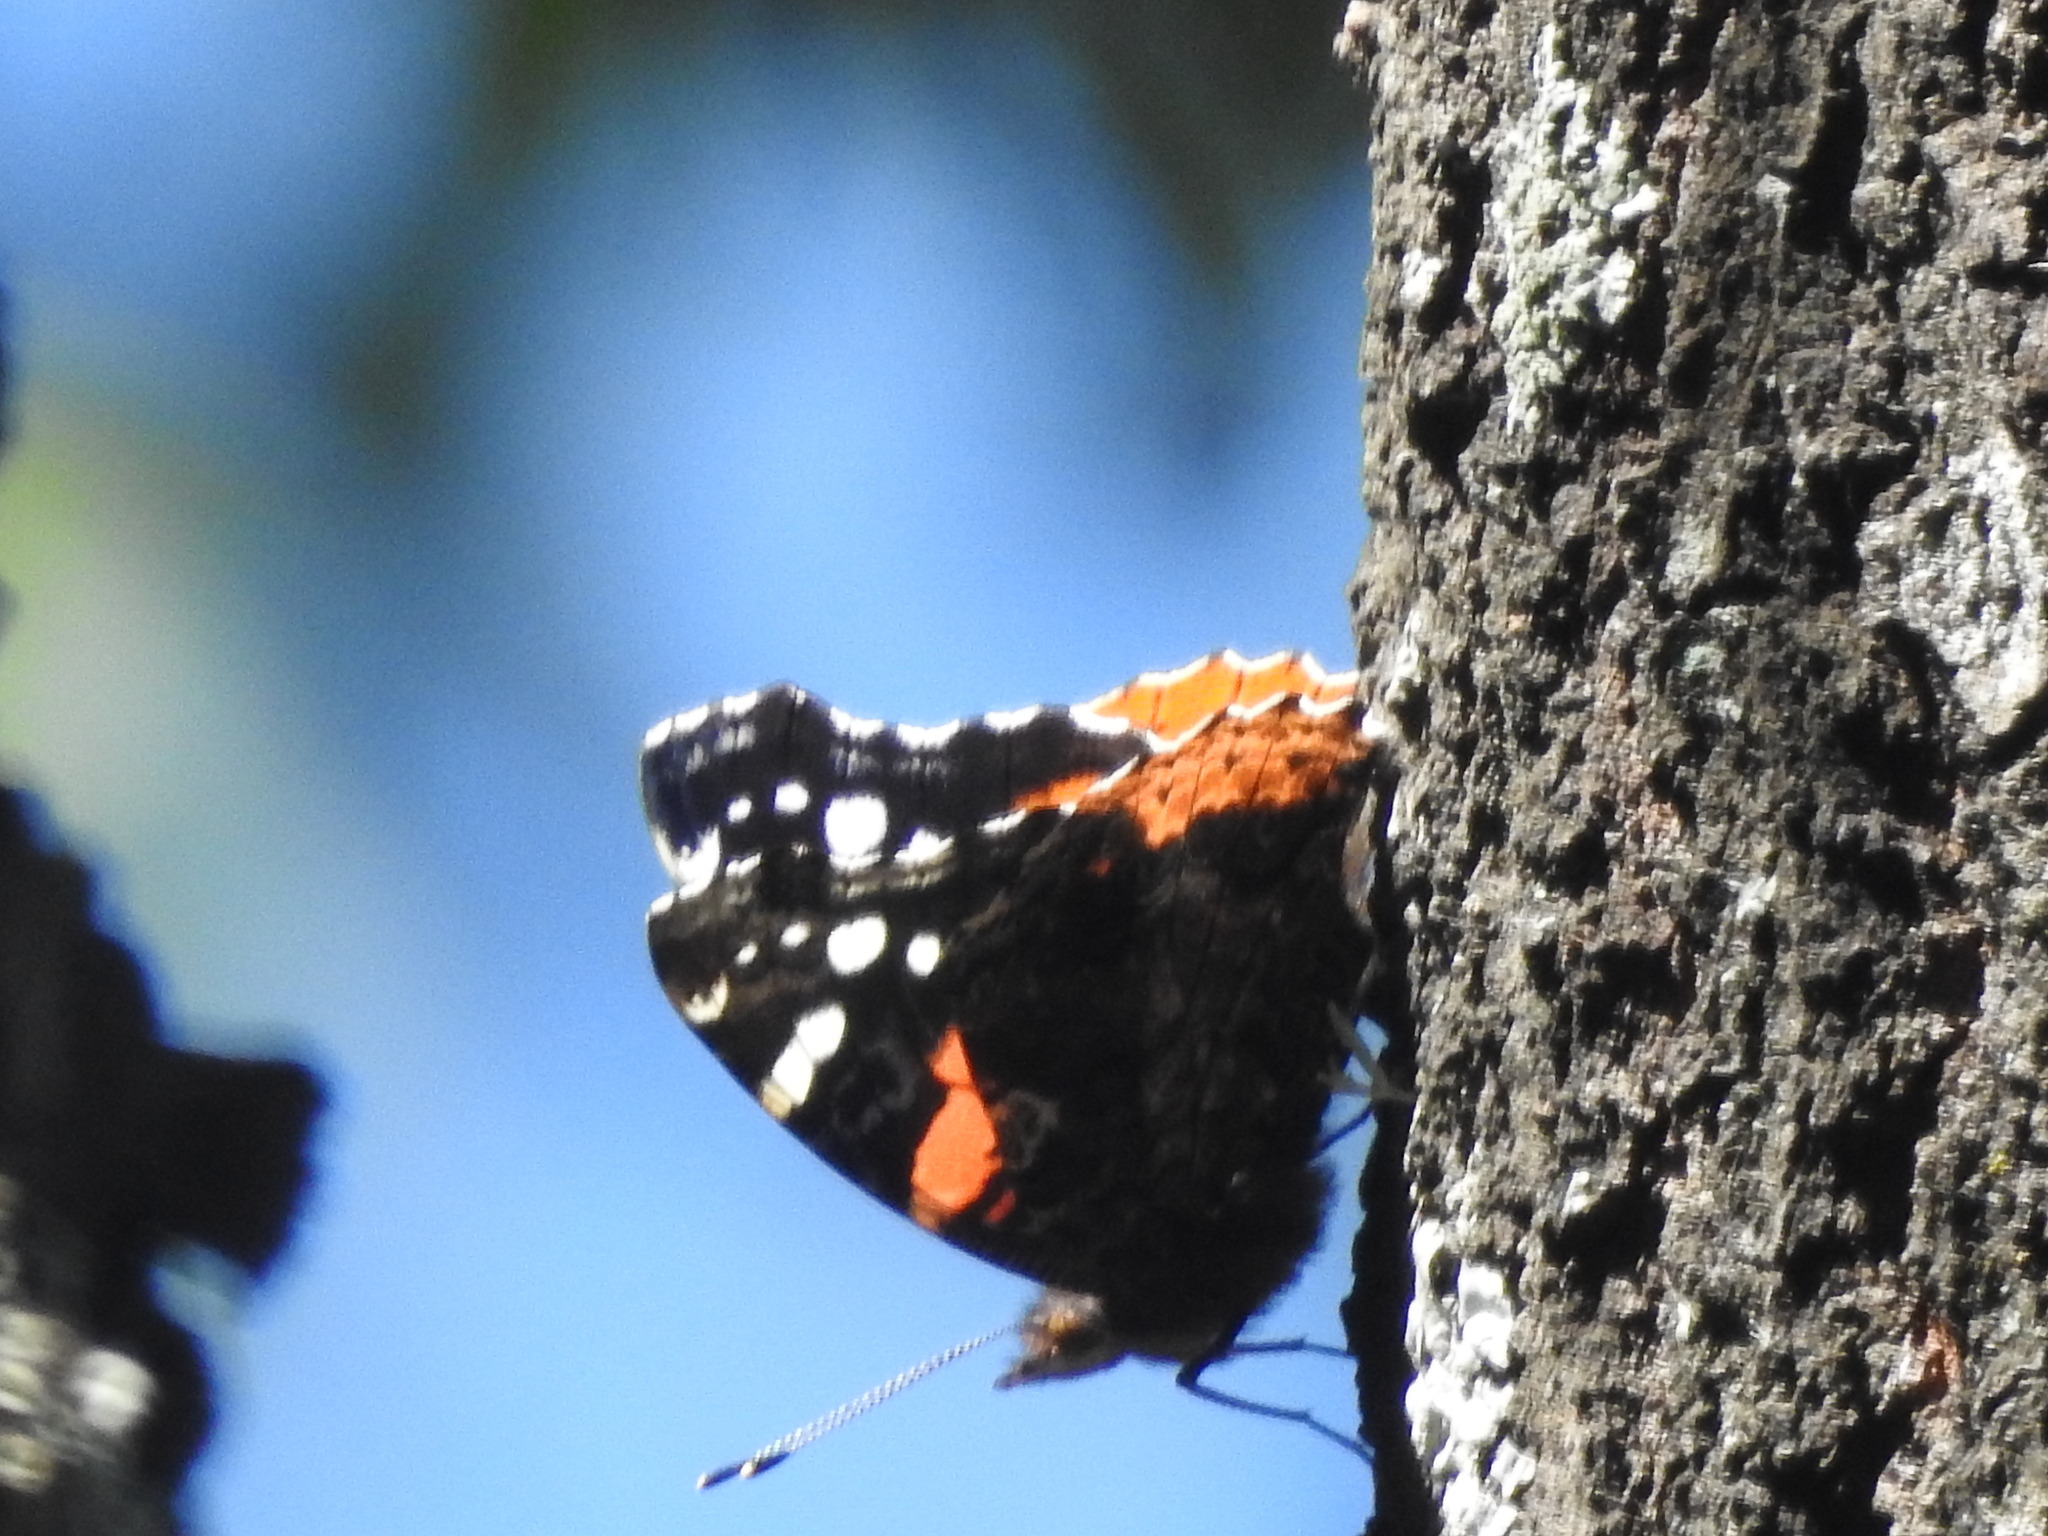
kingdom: Animalia
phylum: Arthropoda
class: Insecta
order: Lepidoptera
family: Nymphalidae
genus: Vanessa
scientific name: Vanessa atalanta
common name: Red admiral
